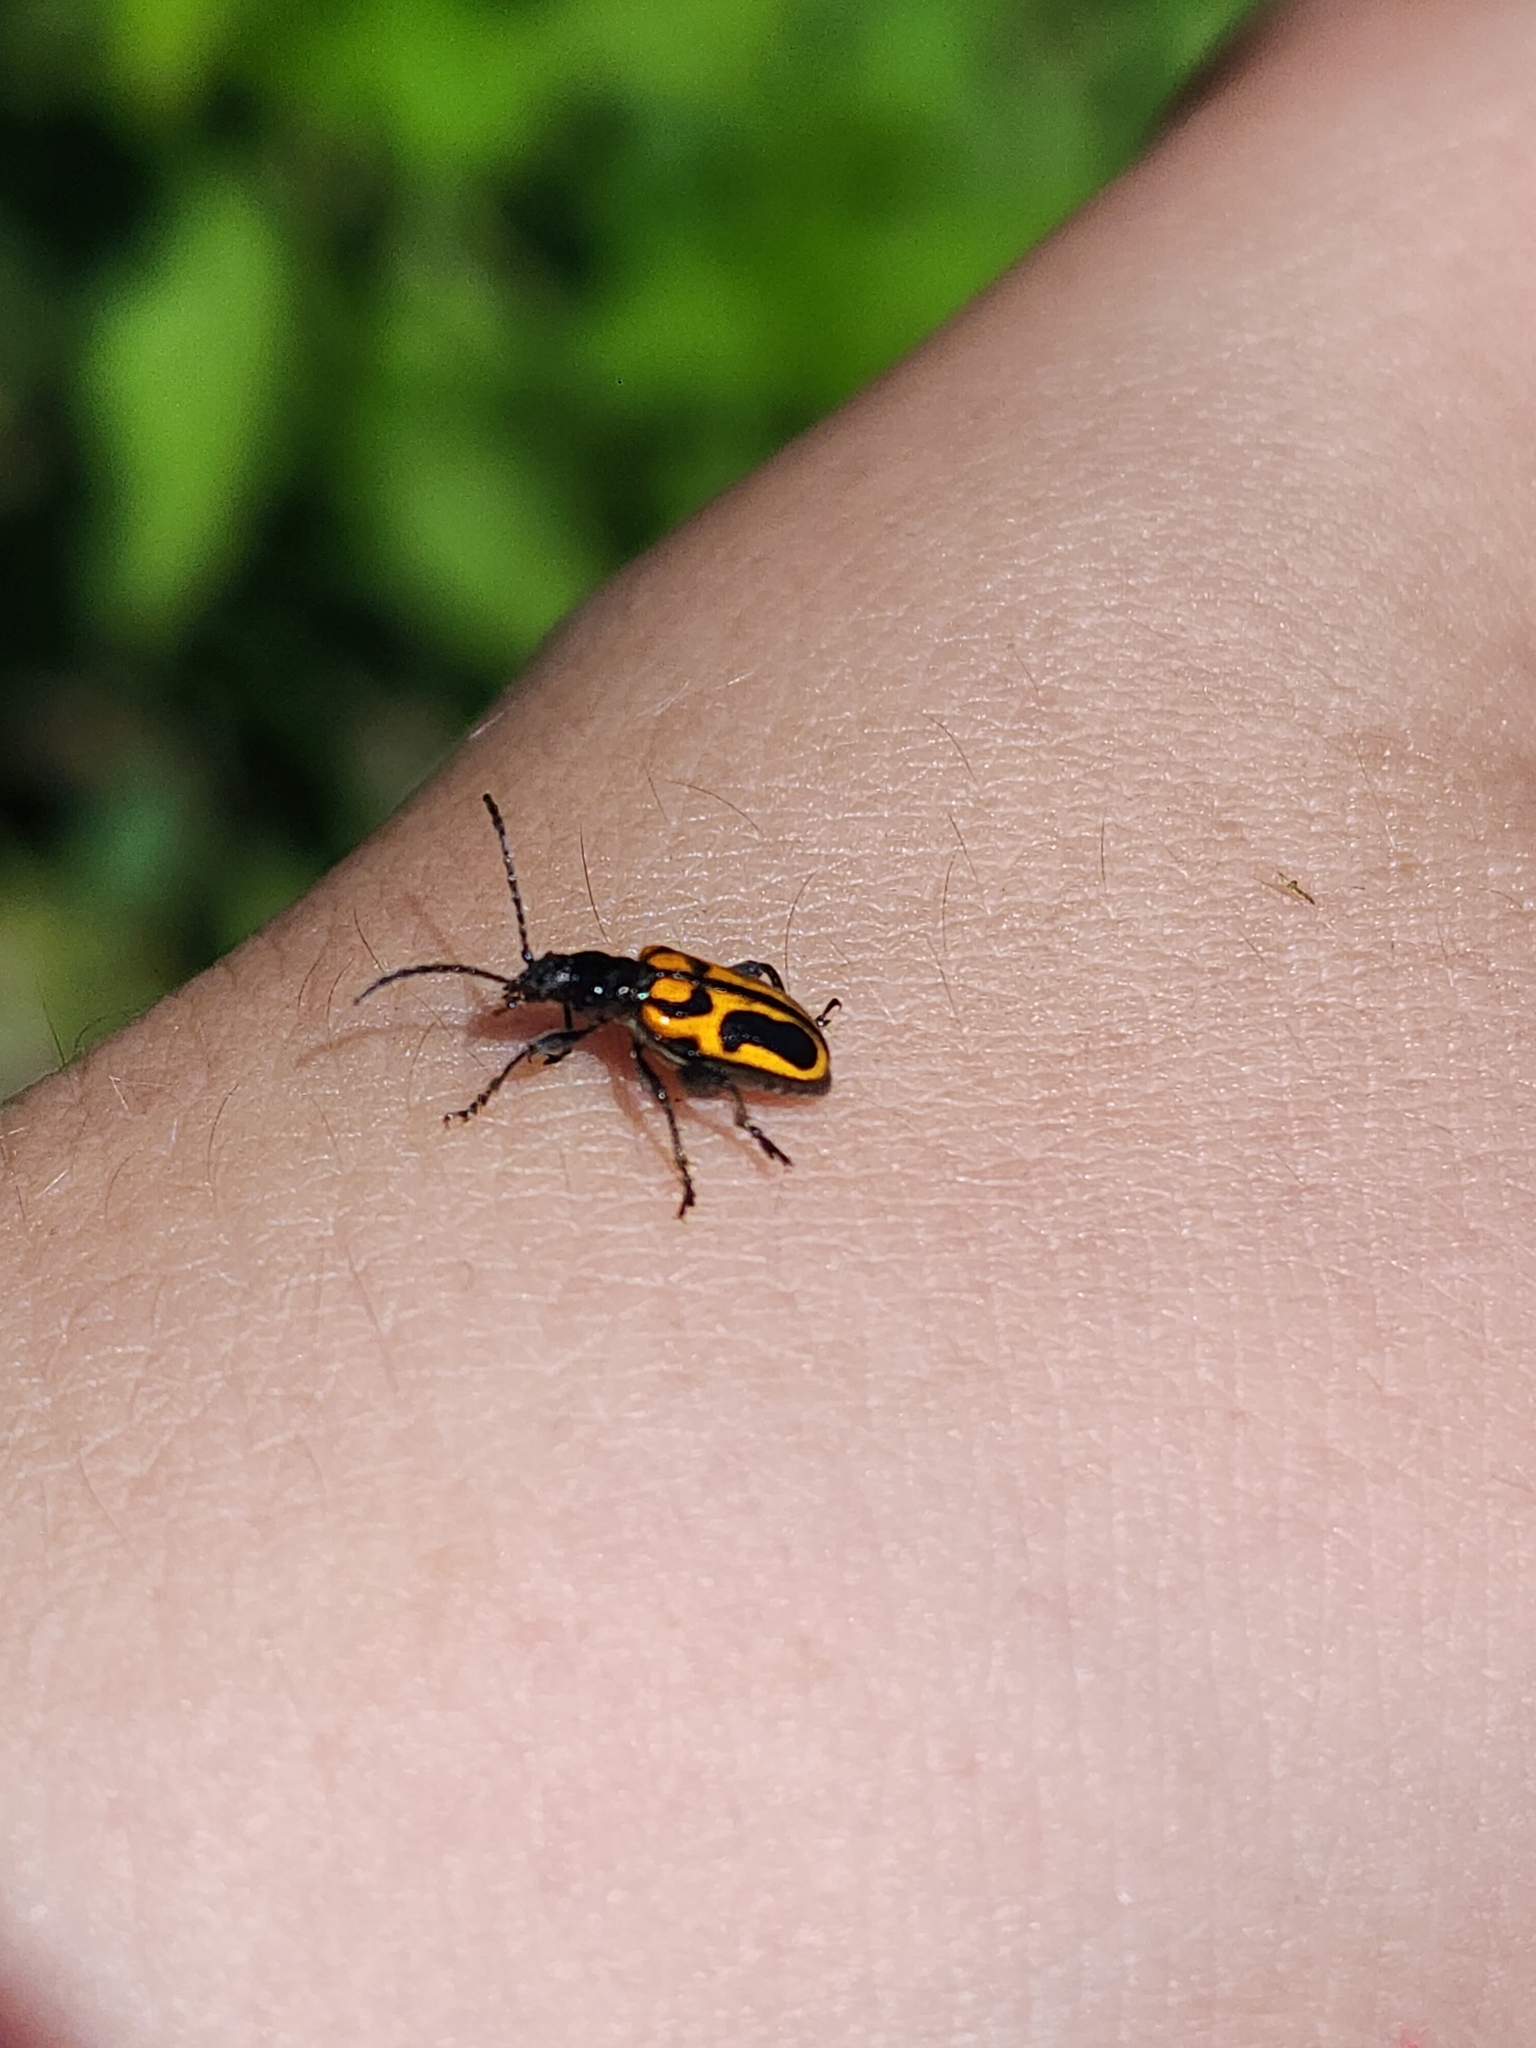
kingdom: Animalia
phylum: Arthropoda
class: Insecta
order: Coleoptera
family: Chrysomelidae
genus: Atalasis
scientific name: Atalasis
